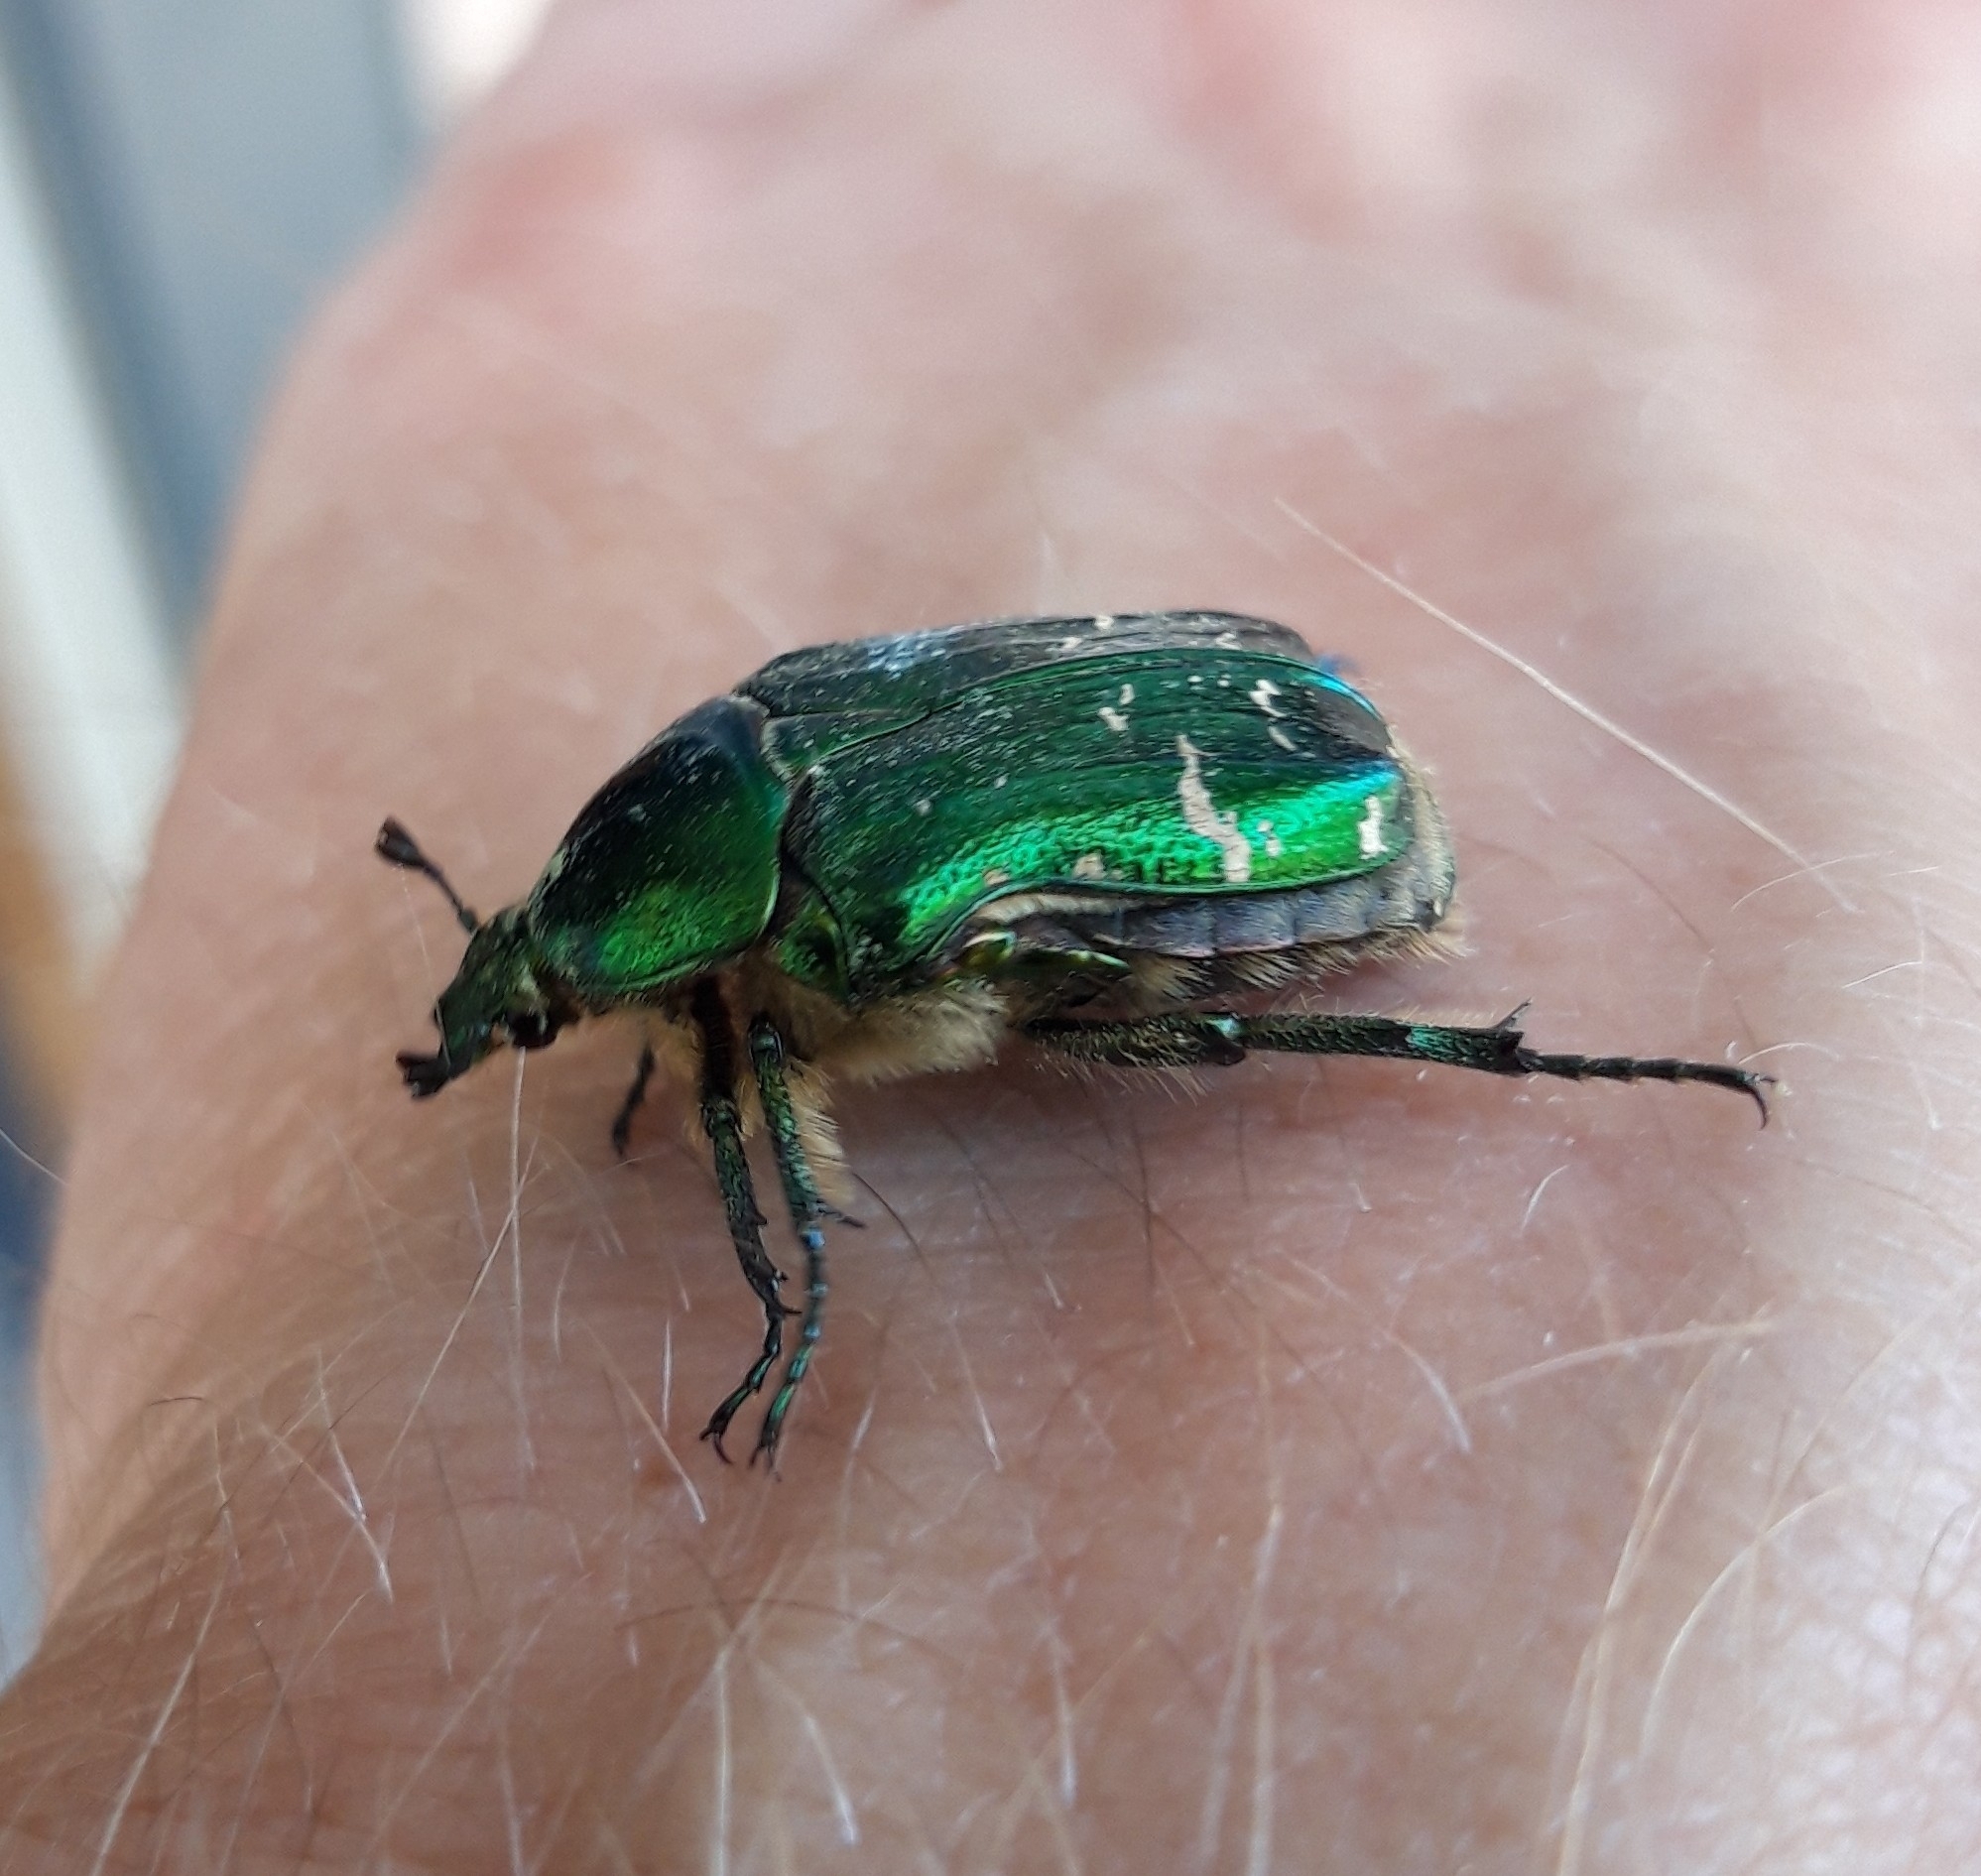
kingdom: Animalia
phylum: Arthropoda
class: Insecta
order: Coleoptera
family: Scarabaeidae
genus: Cetonia
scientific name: Cetonia aurata
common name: Rose chafer
